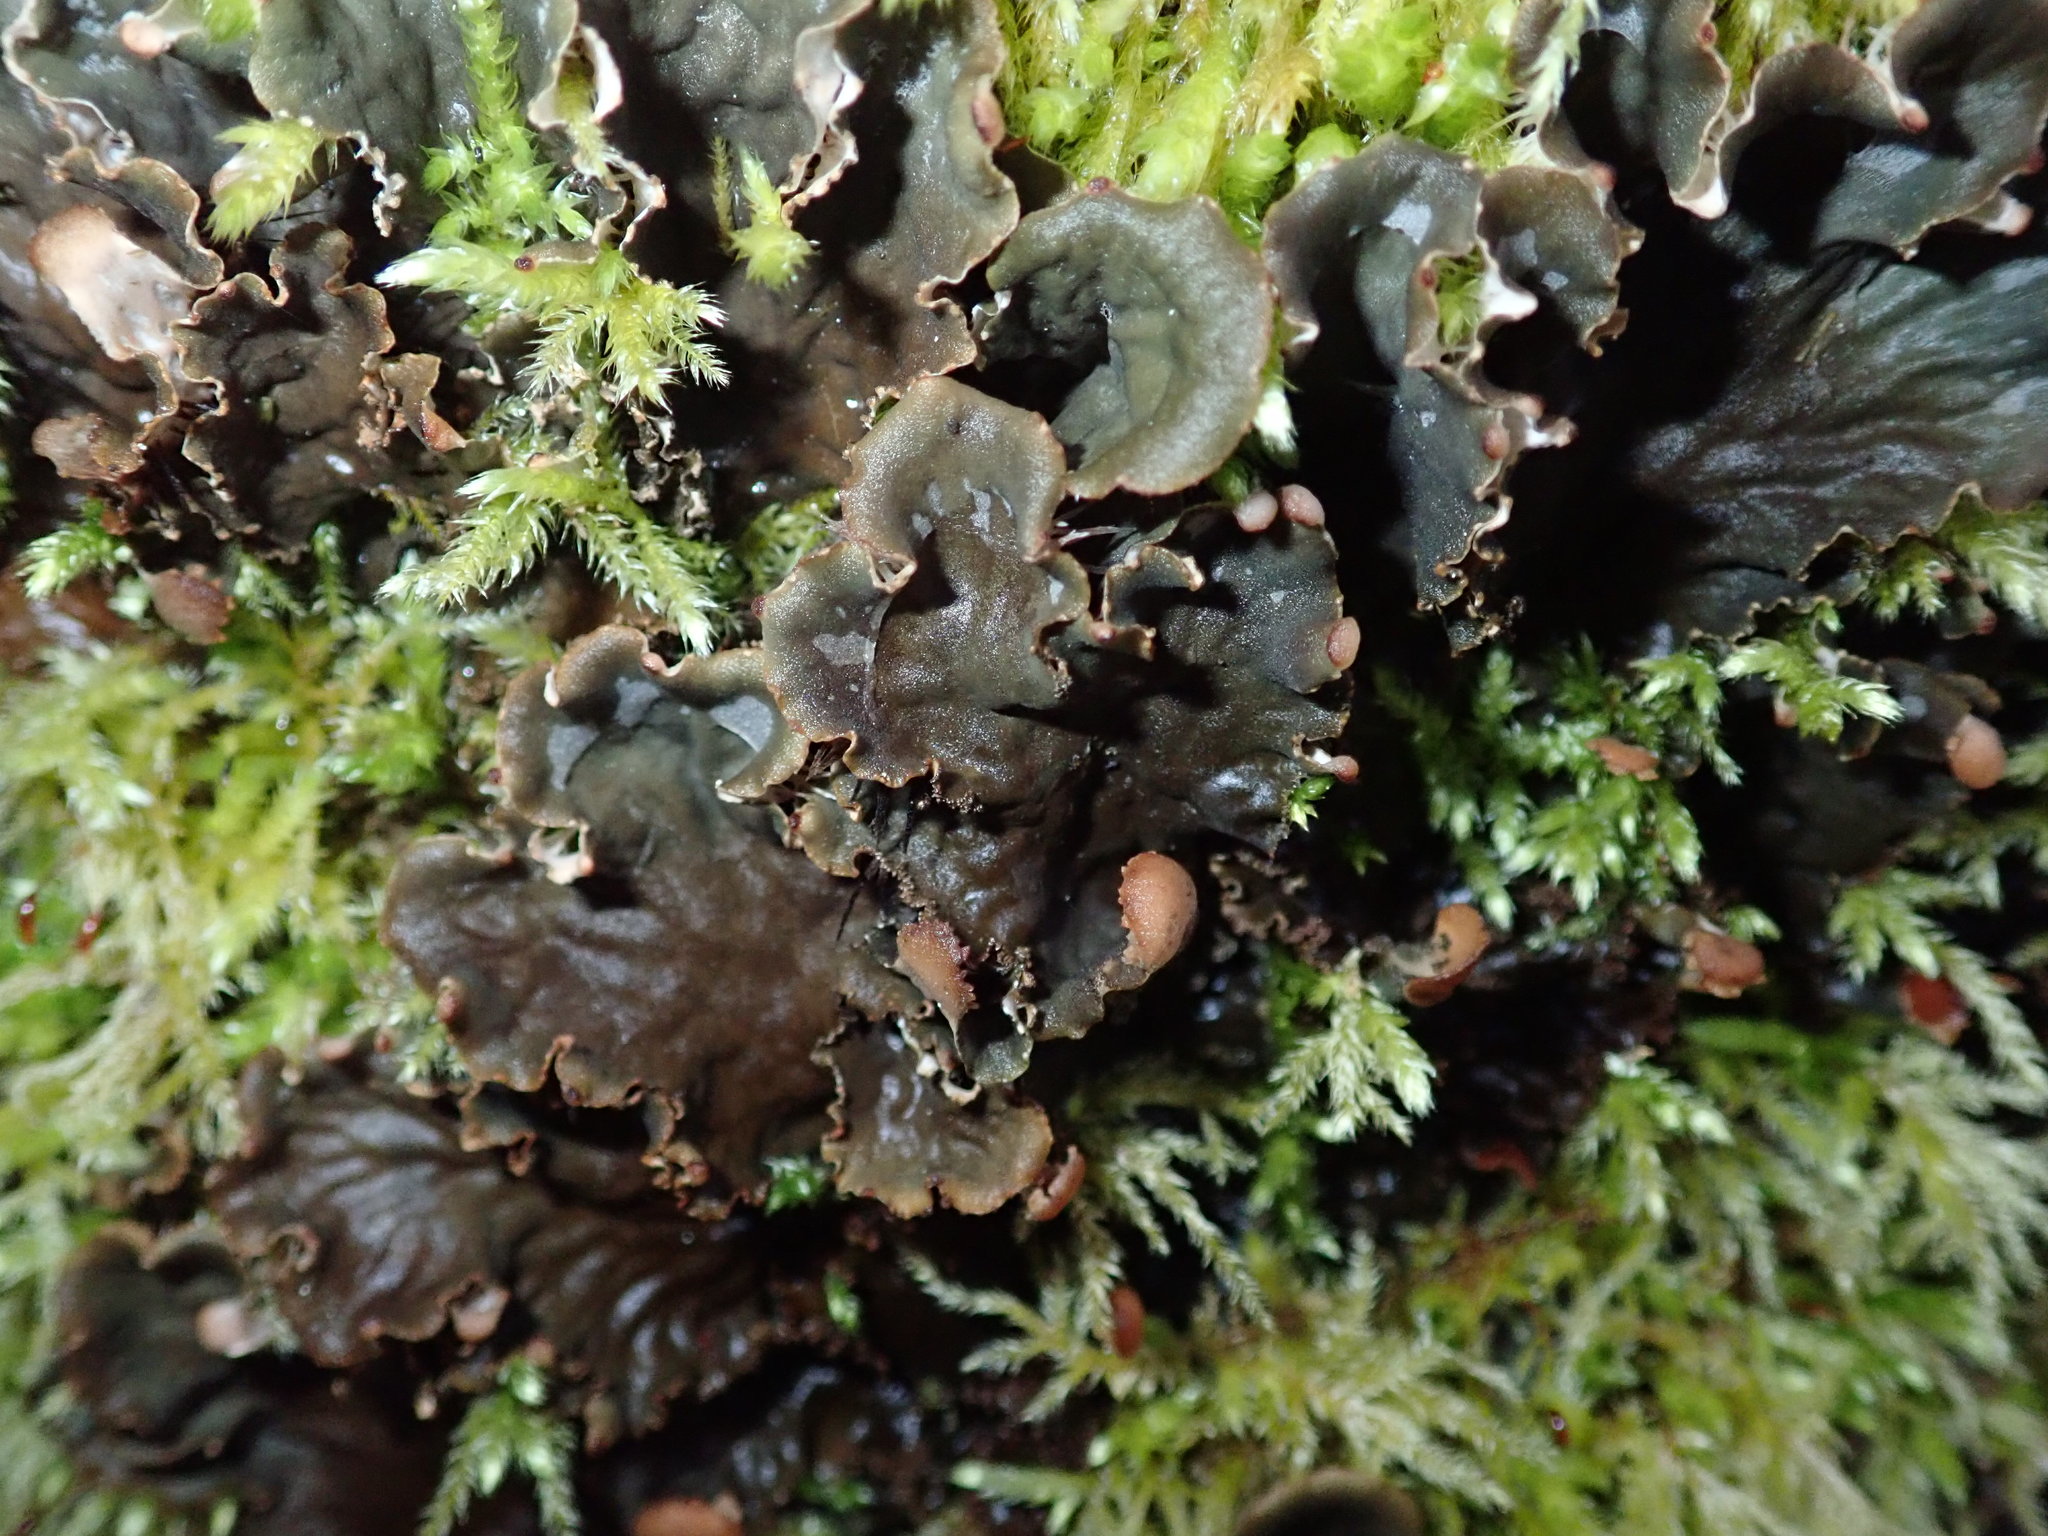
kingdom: Fungi
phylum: Ascomycota
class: Lecanoromycetes
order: Peltigerales
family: Peltigeraceae
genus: Peltigera
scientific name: Peltigera praetextata
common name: Scaly dog-lichen
